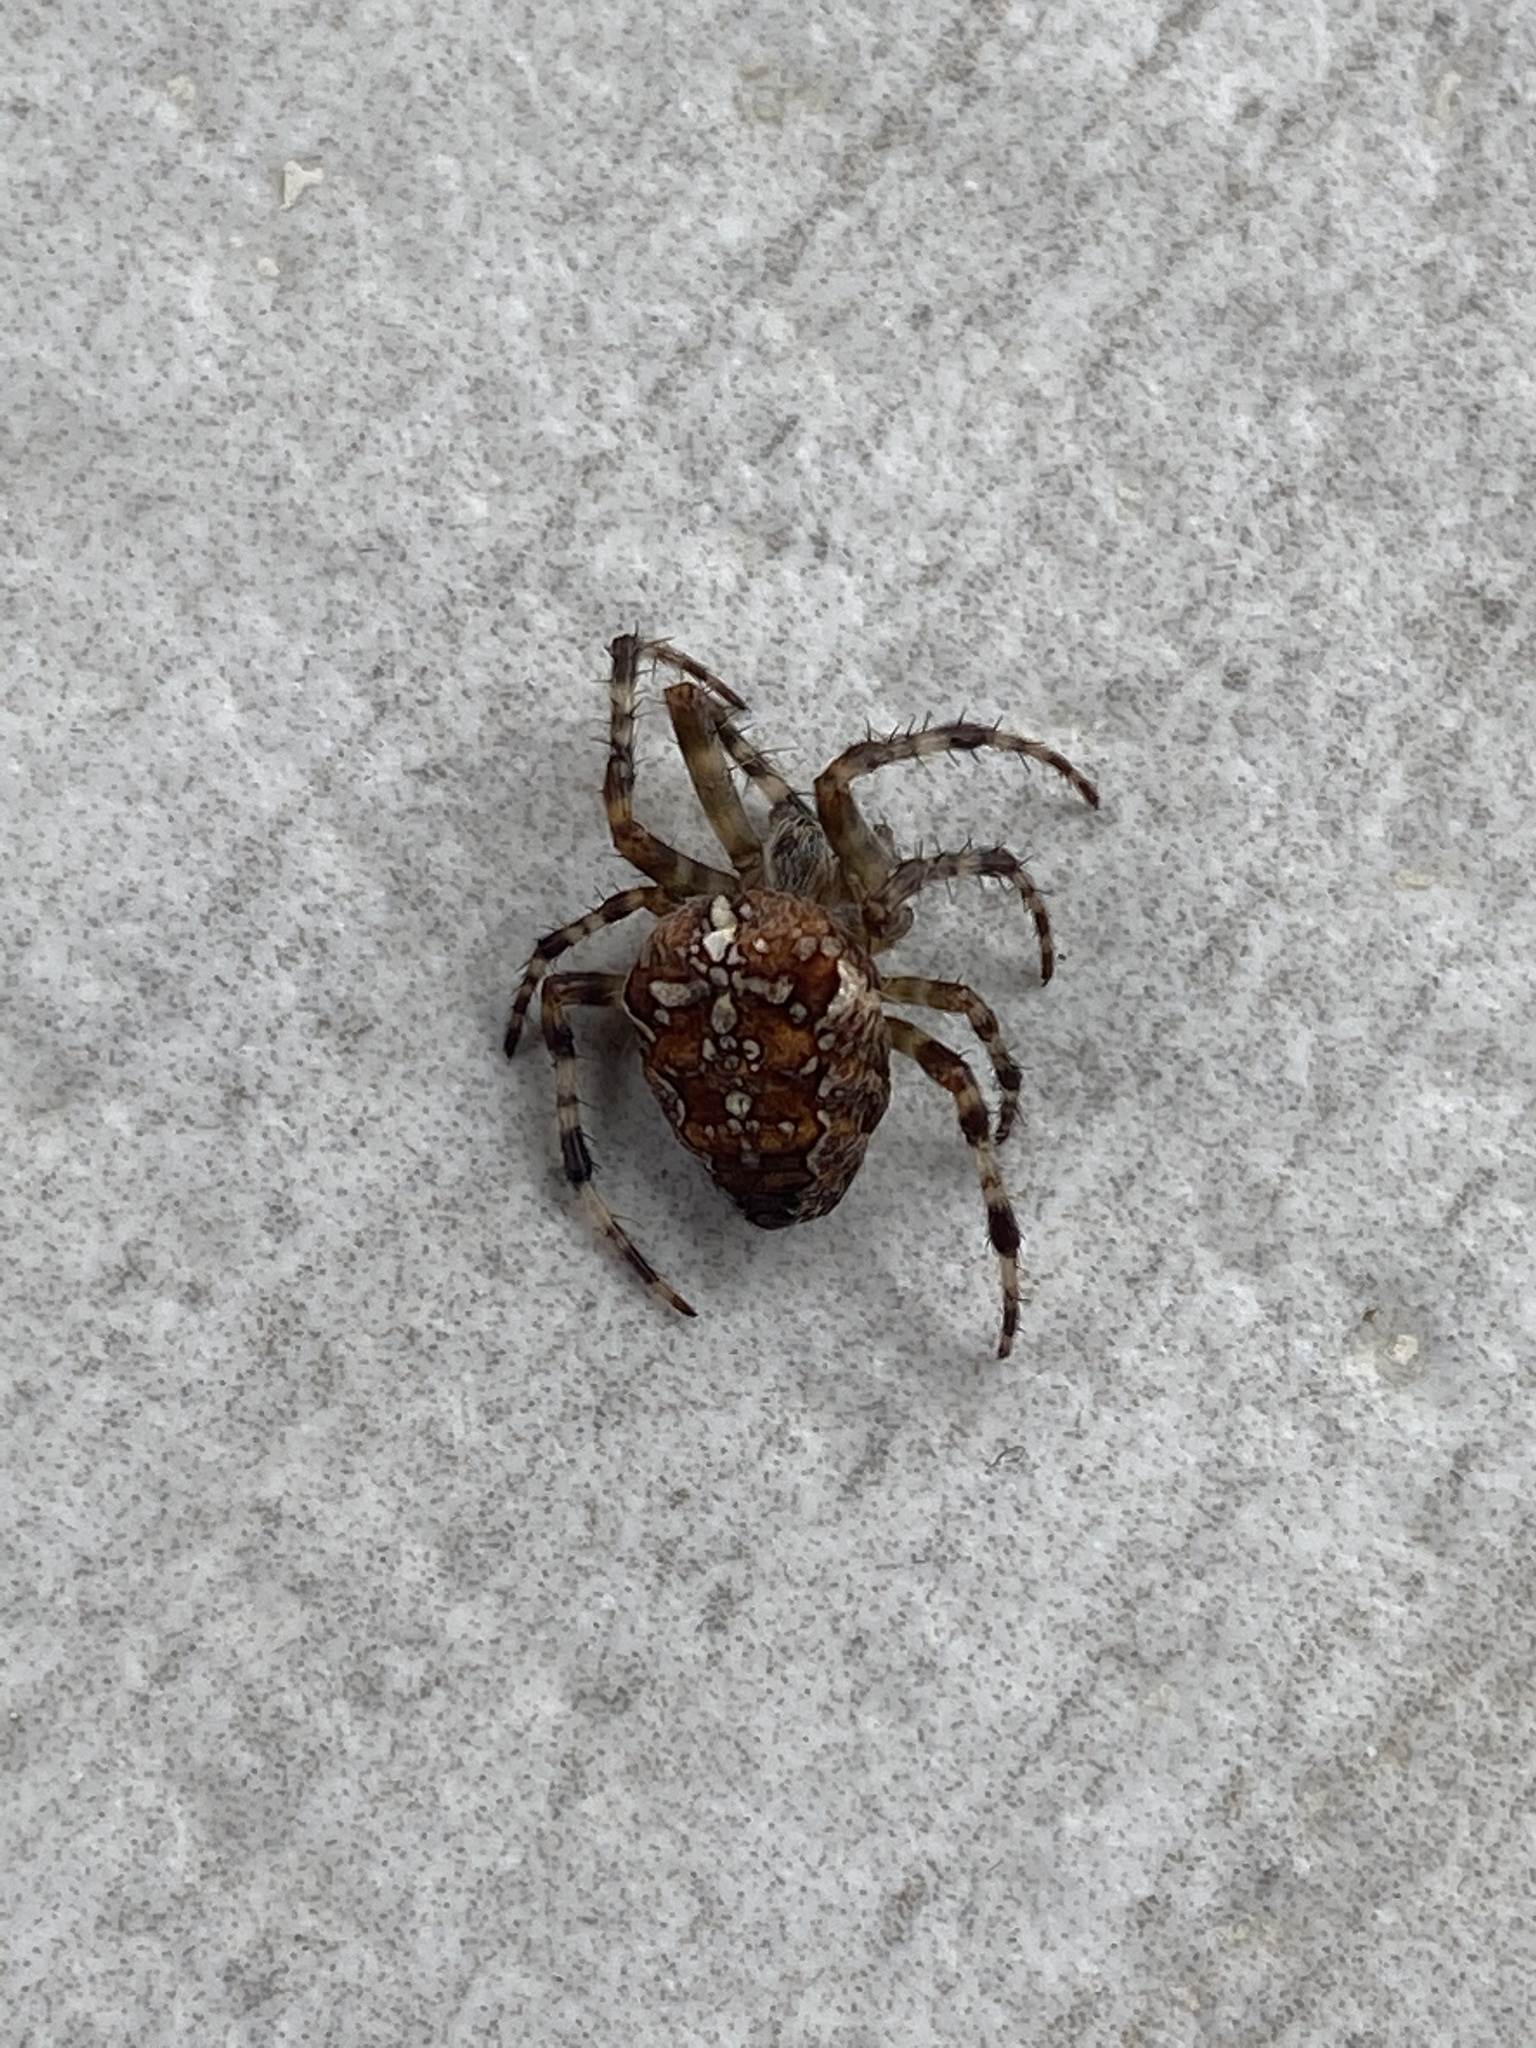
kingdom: Animalia
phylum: Arthropoda
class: Arachnida
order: Araneae
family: Araneidae
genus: Araneus
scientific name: Araneus diadematus
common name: Cross orbweaver
